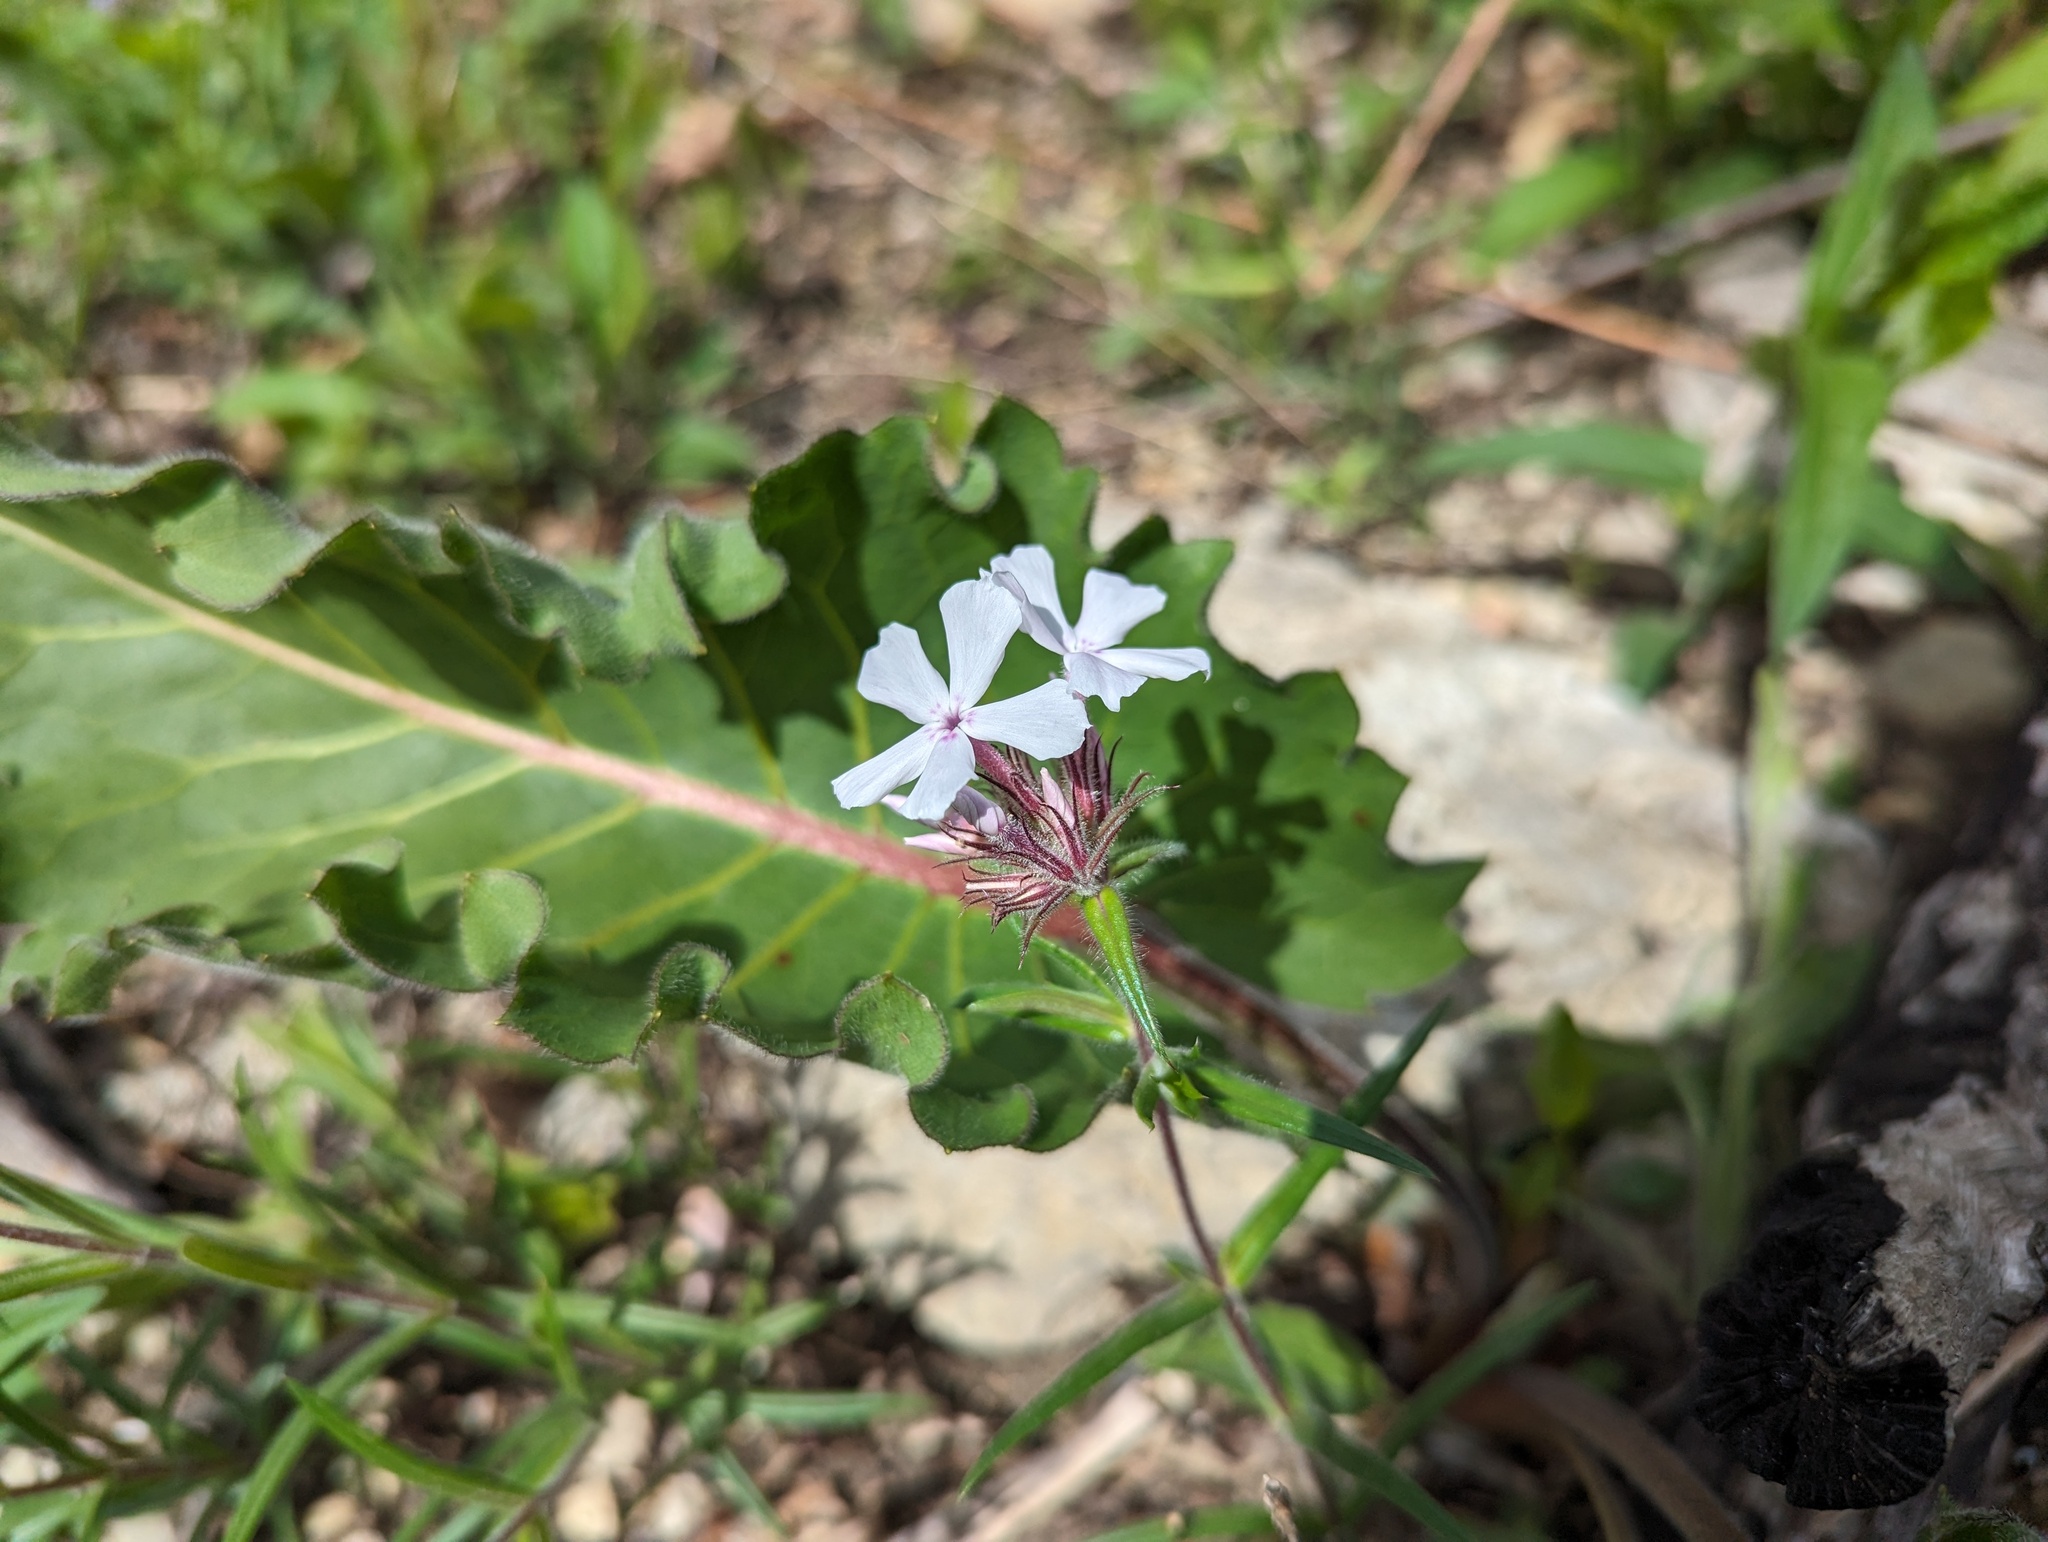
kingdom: Plantae
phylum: Tracheophyta
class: Magnoliopsida
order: Ericales
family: Polemoniaceae
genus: Phlox
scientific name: Phlox pilosa
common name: Prairie phlox
